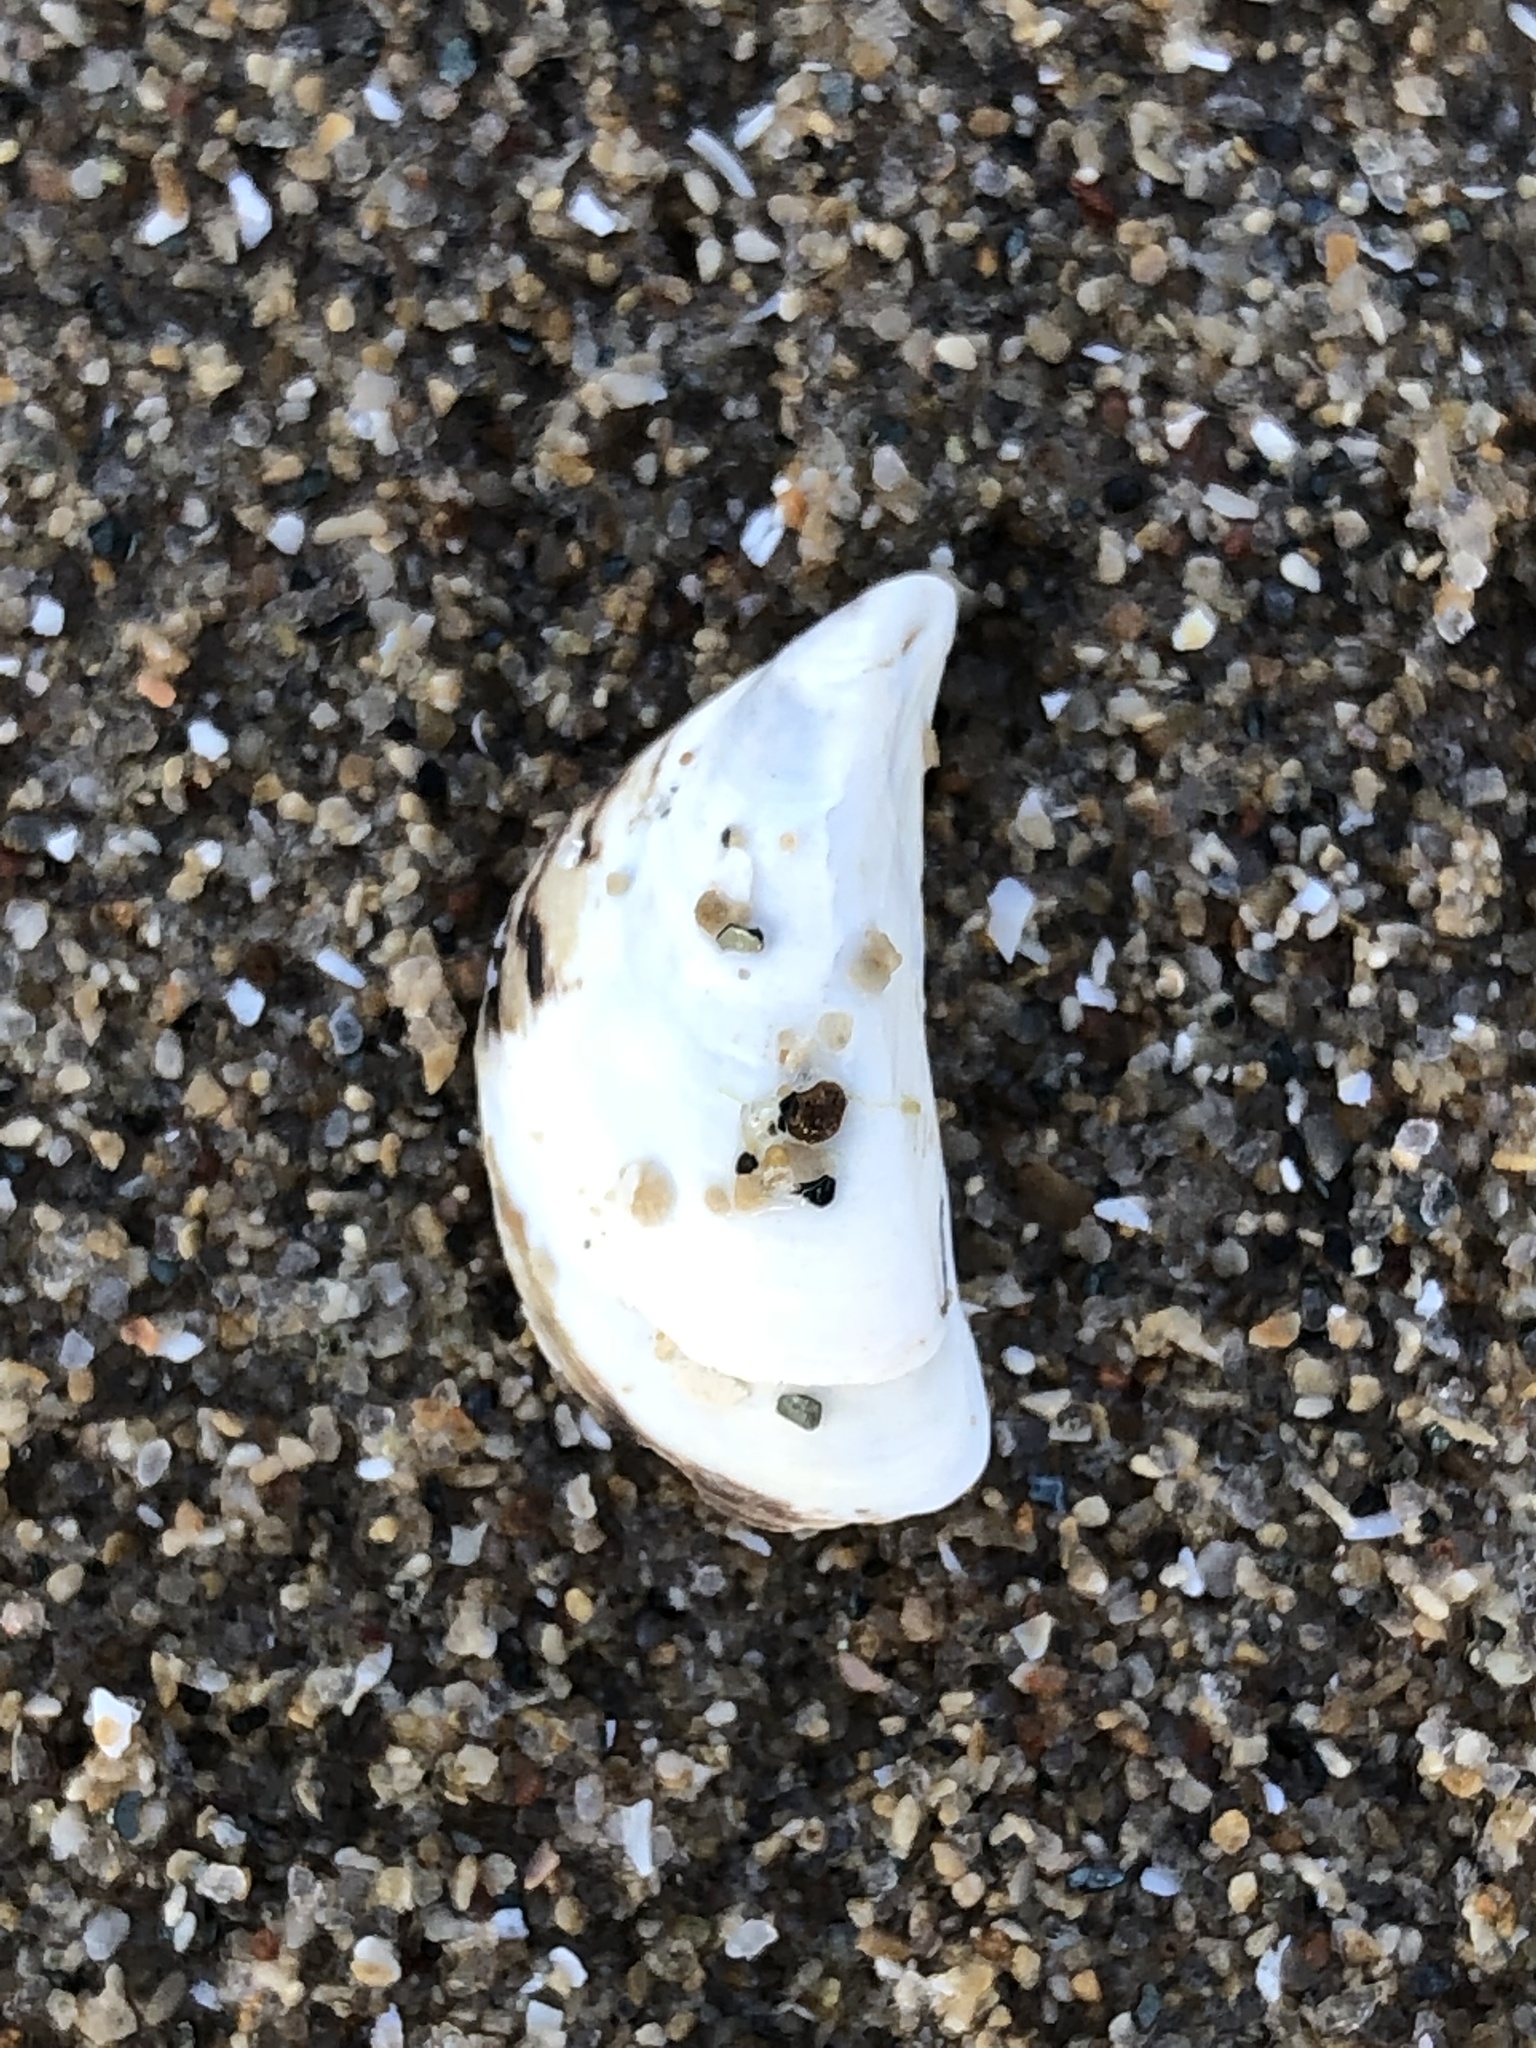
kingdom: Animalia
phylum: Mollusca
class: Bivalvia
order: Myida
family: Dreissenidae
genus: Dreissena
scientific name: Dreissena polymorpha
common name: Zebra mussel
